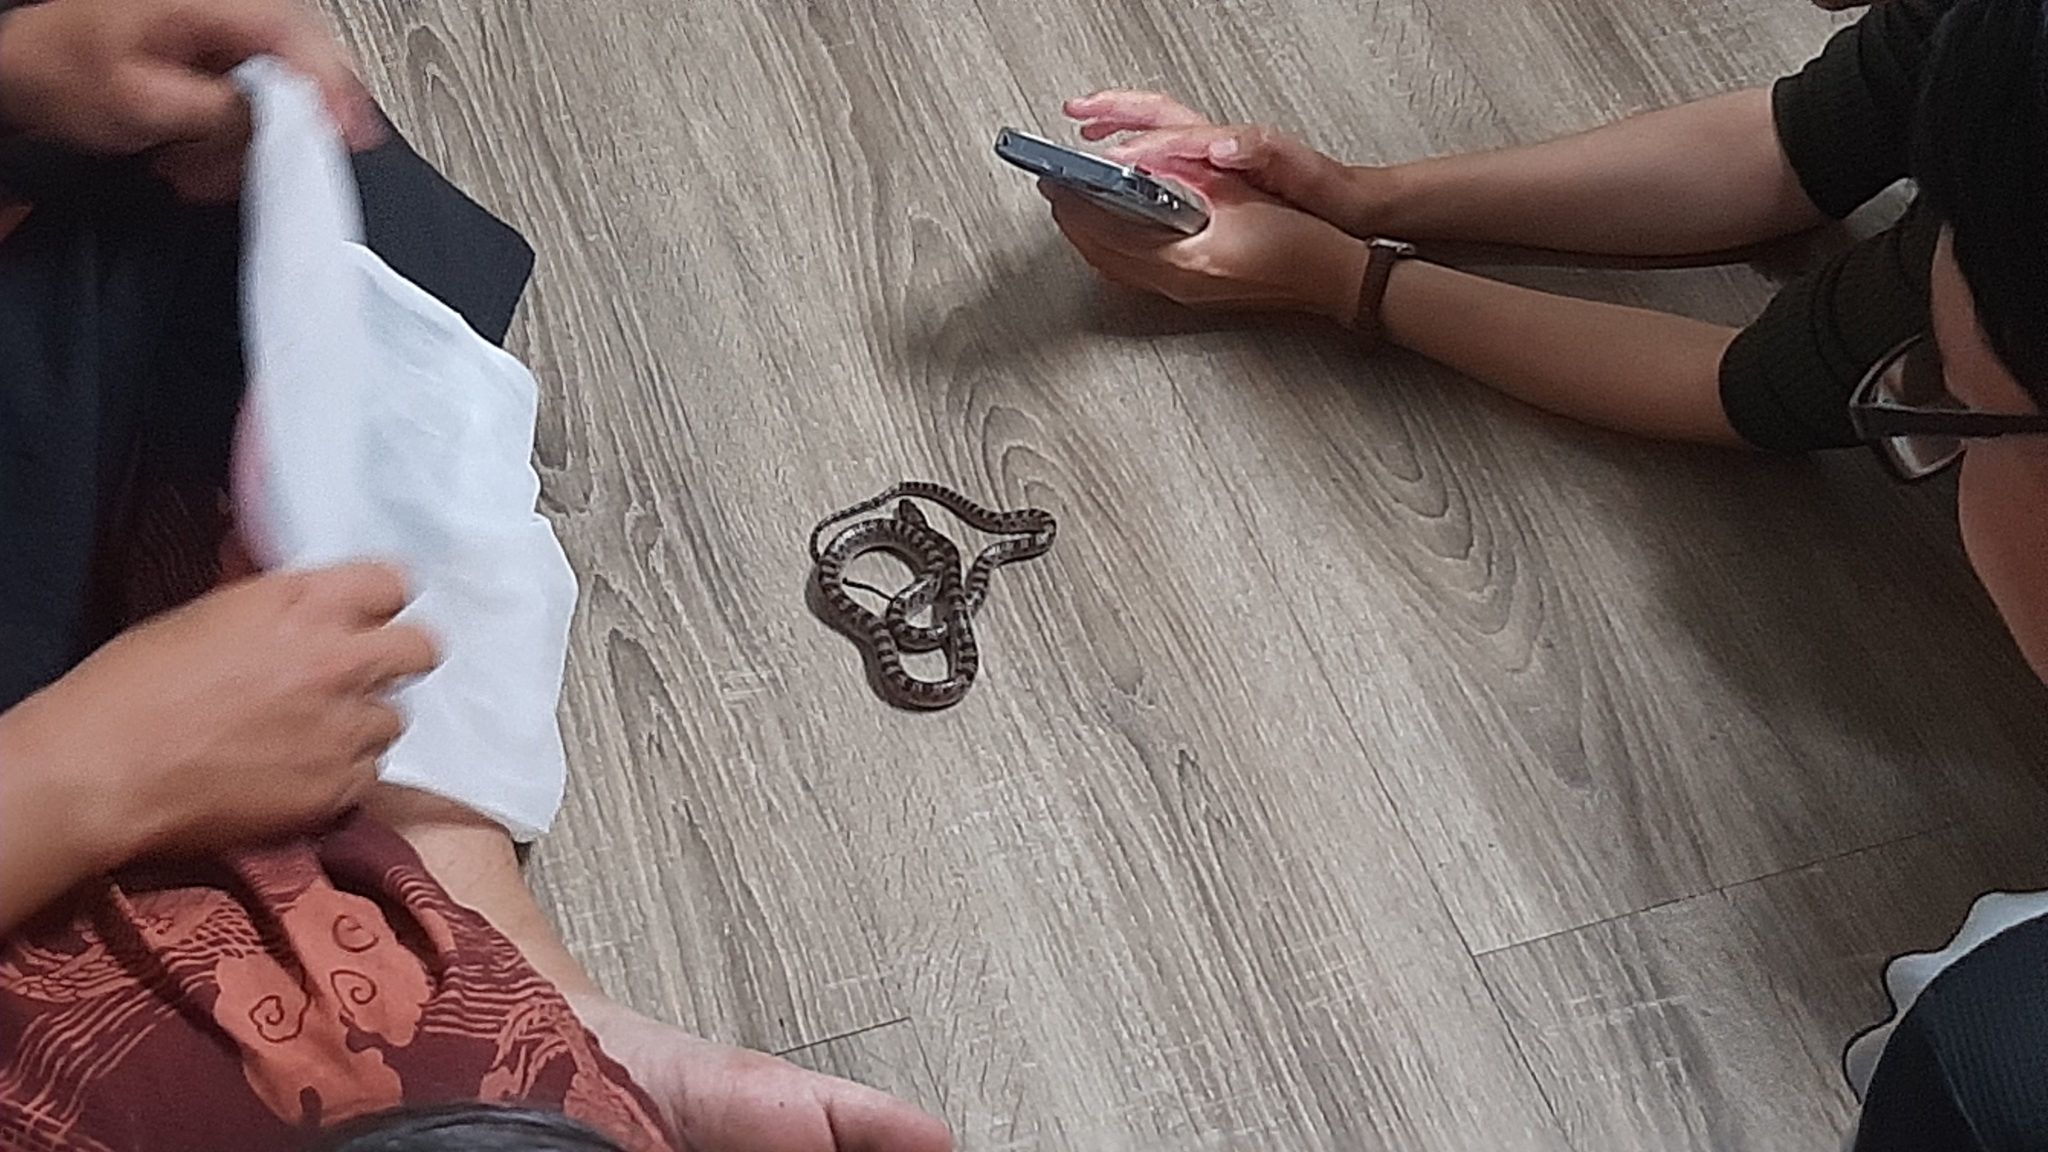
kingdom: Animalia
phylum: Chordata
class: Squamata
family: Colubridae
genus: Lycodon
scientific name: Lycodon rufozonatus
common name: Red-banded snake
